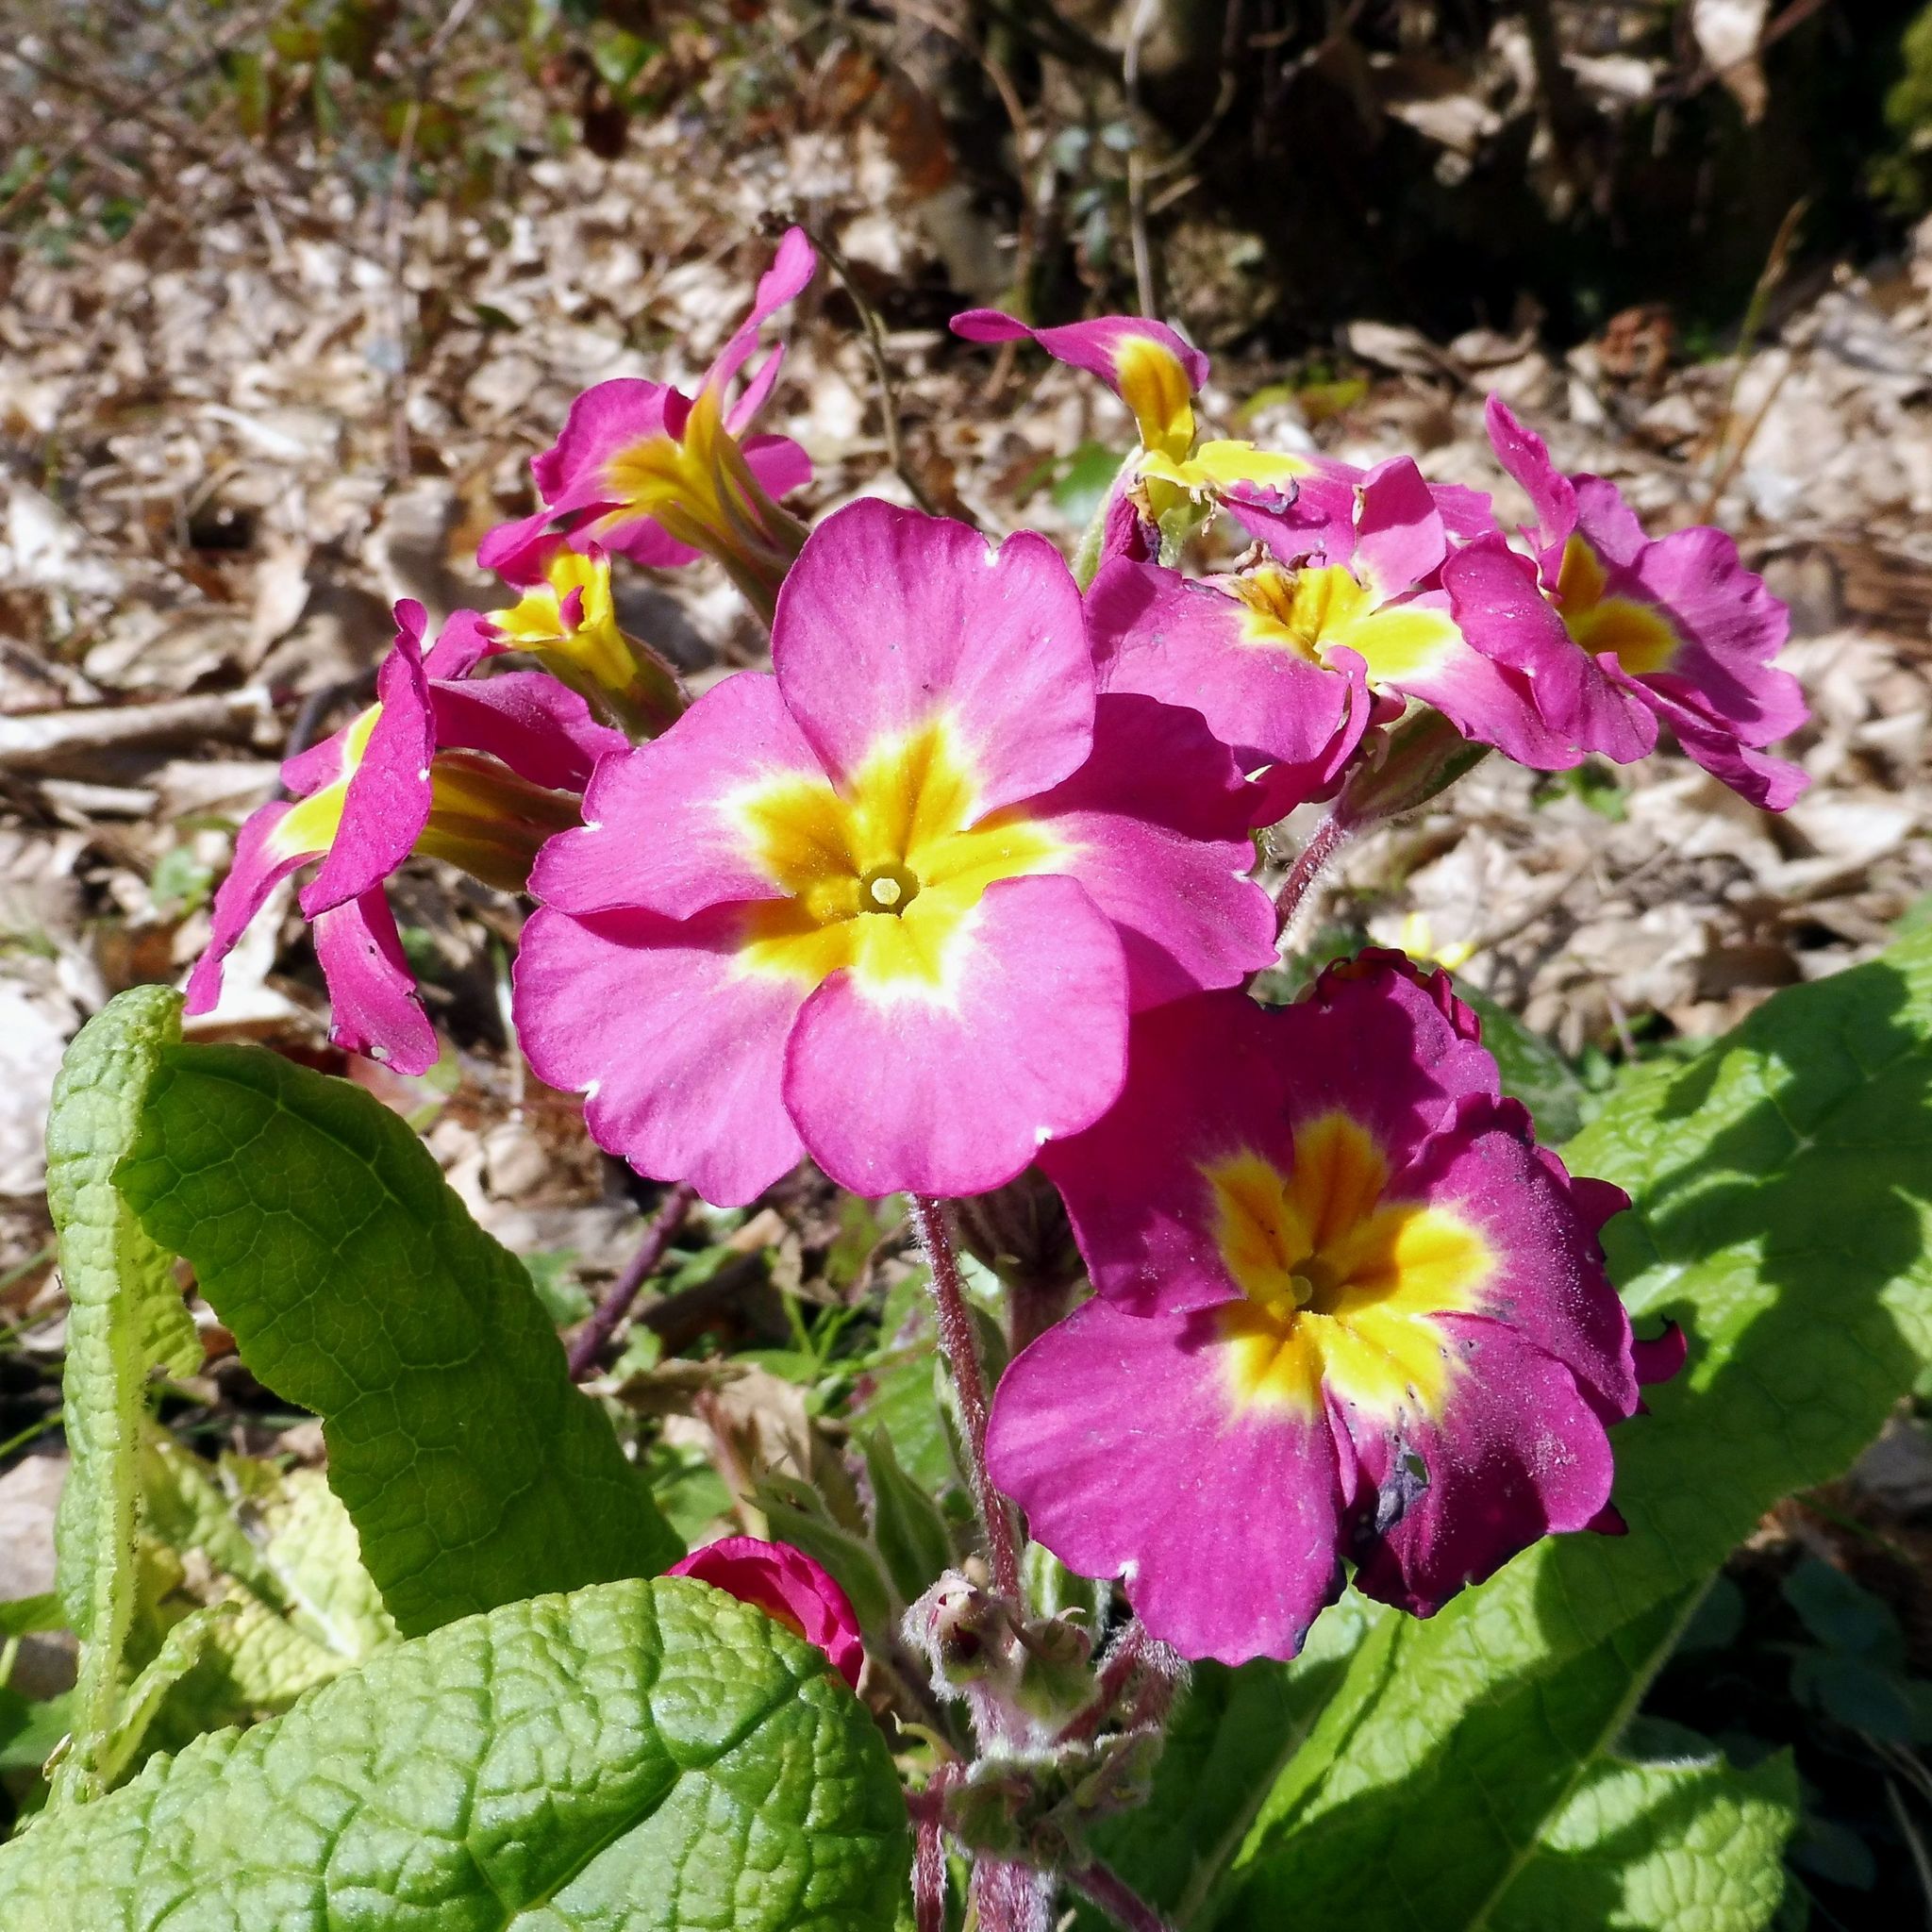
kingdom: Plantae
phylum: Tracheophyta
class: Magnoliopsida
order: Ericales
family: Primulaceae
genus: Primula
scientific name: Primula polyantha
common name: False oxlip
